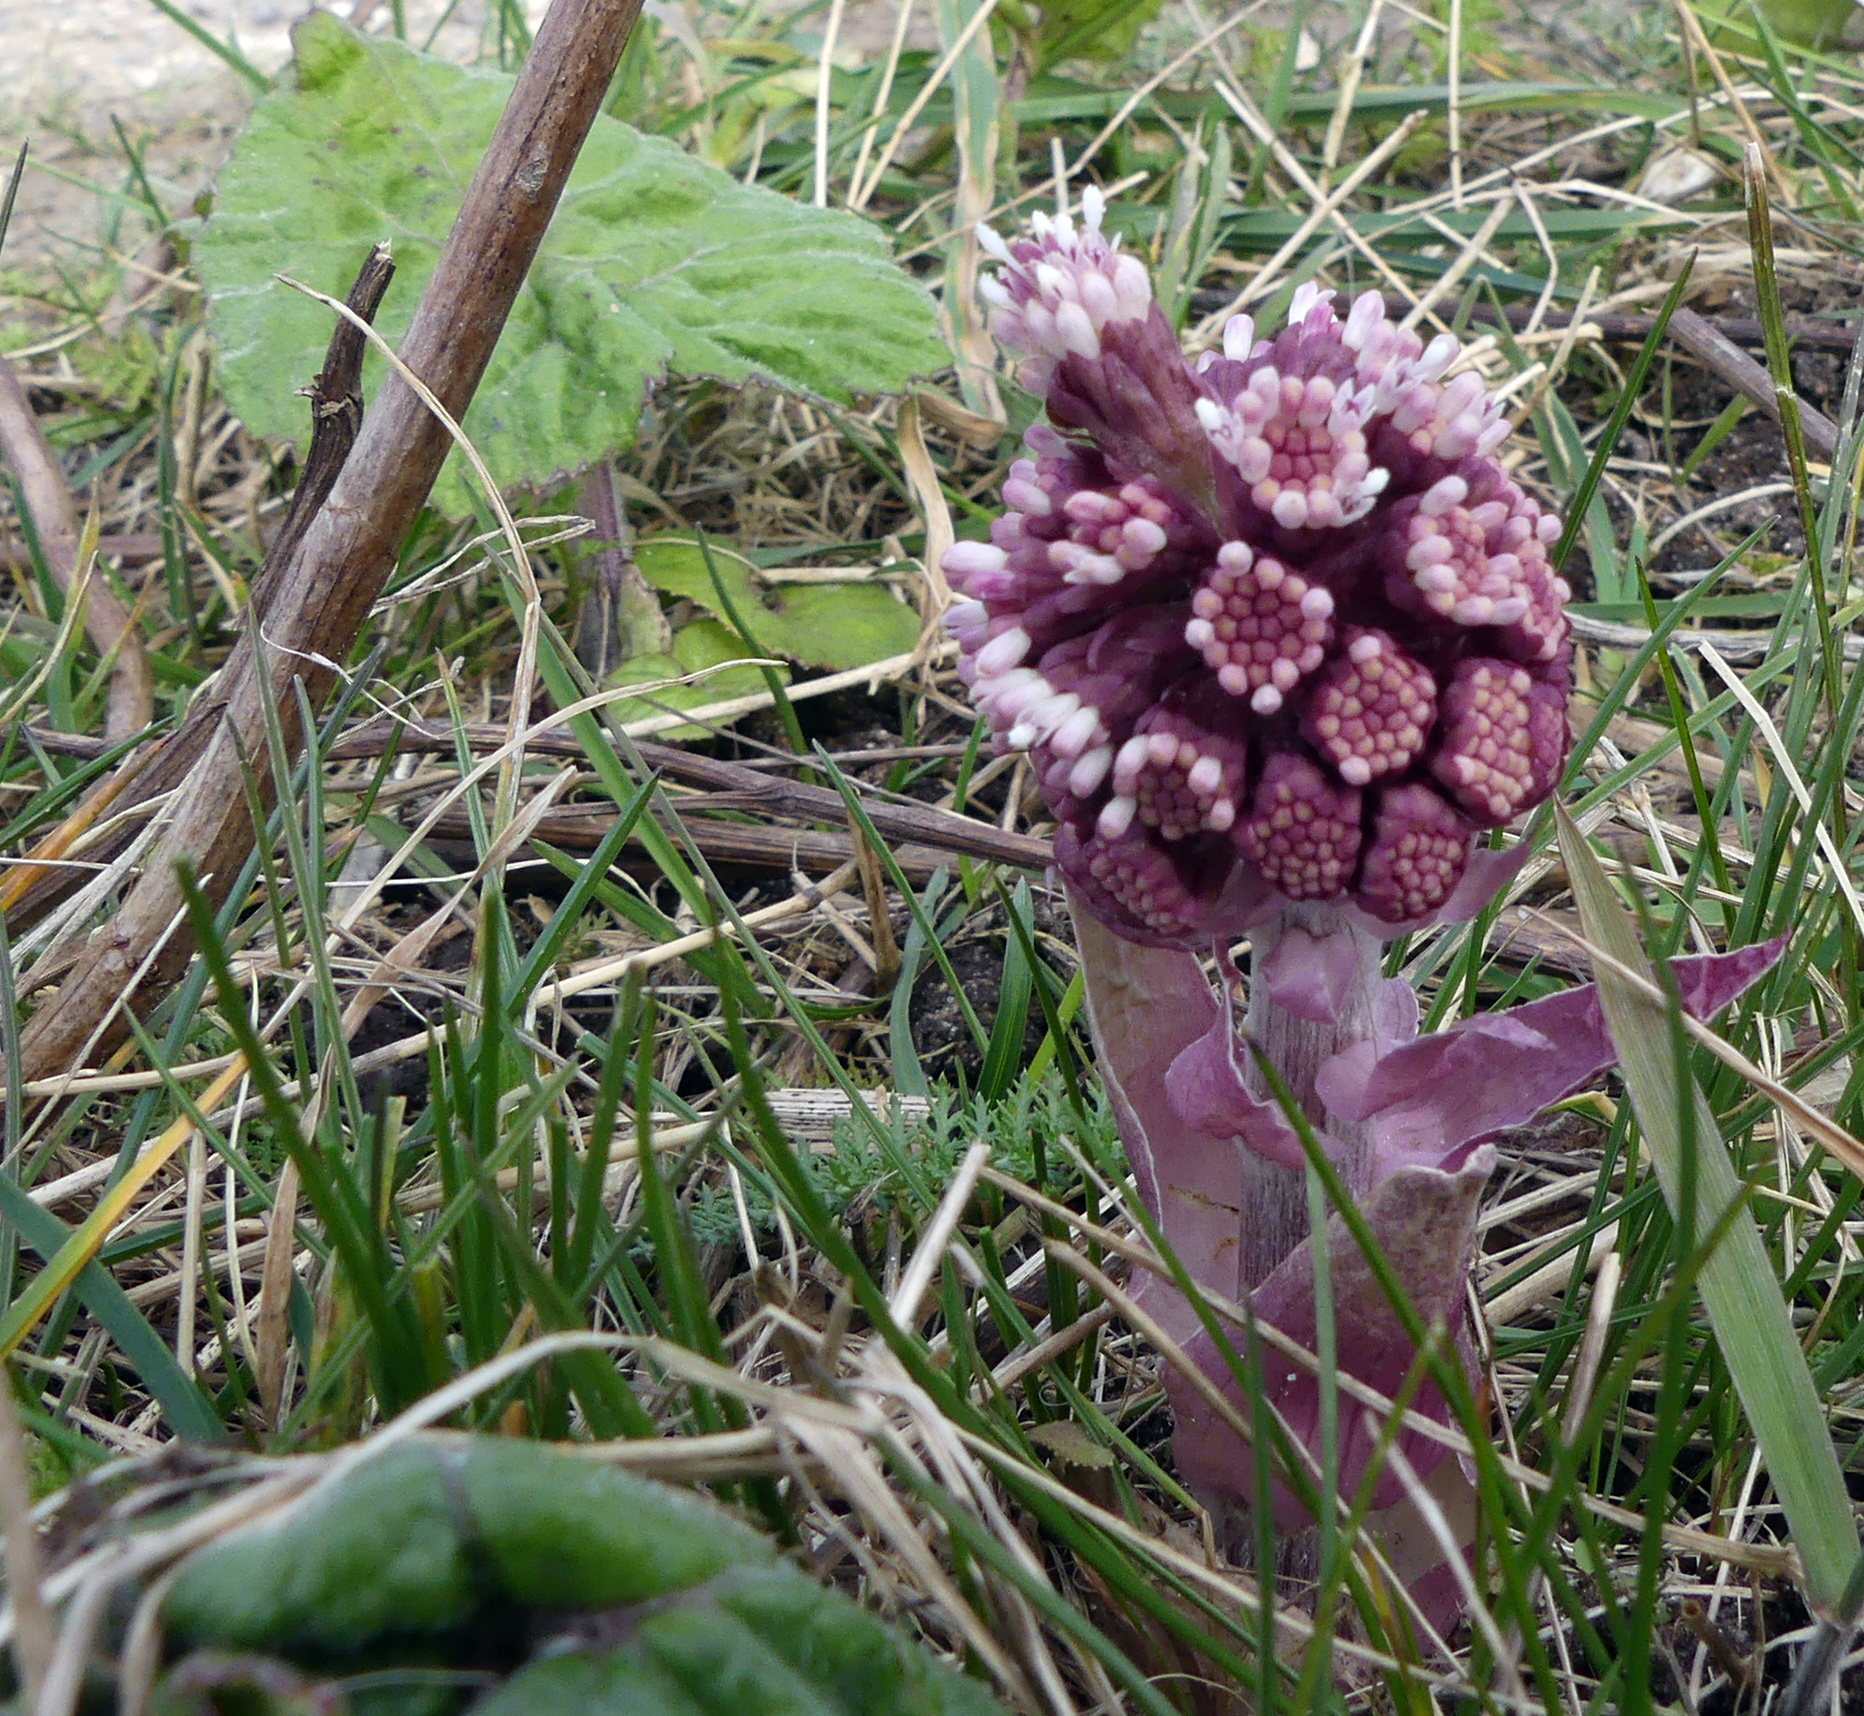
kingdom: Plantae
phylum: Tracheophyta
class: Magnoliopsida
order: Asterales
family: Asteraceae
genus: Petasites
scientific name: Petasites hybridus
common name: Butterbur
